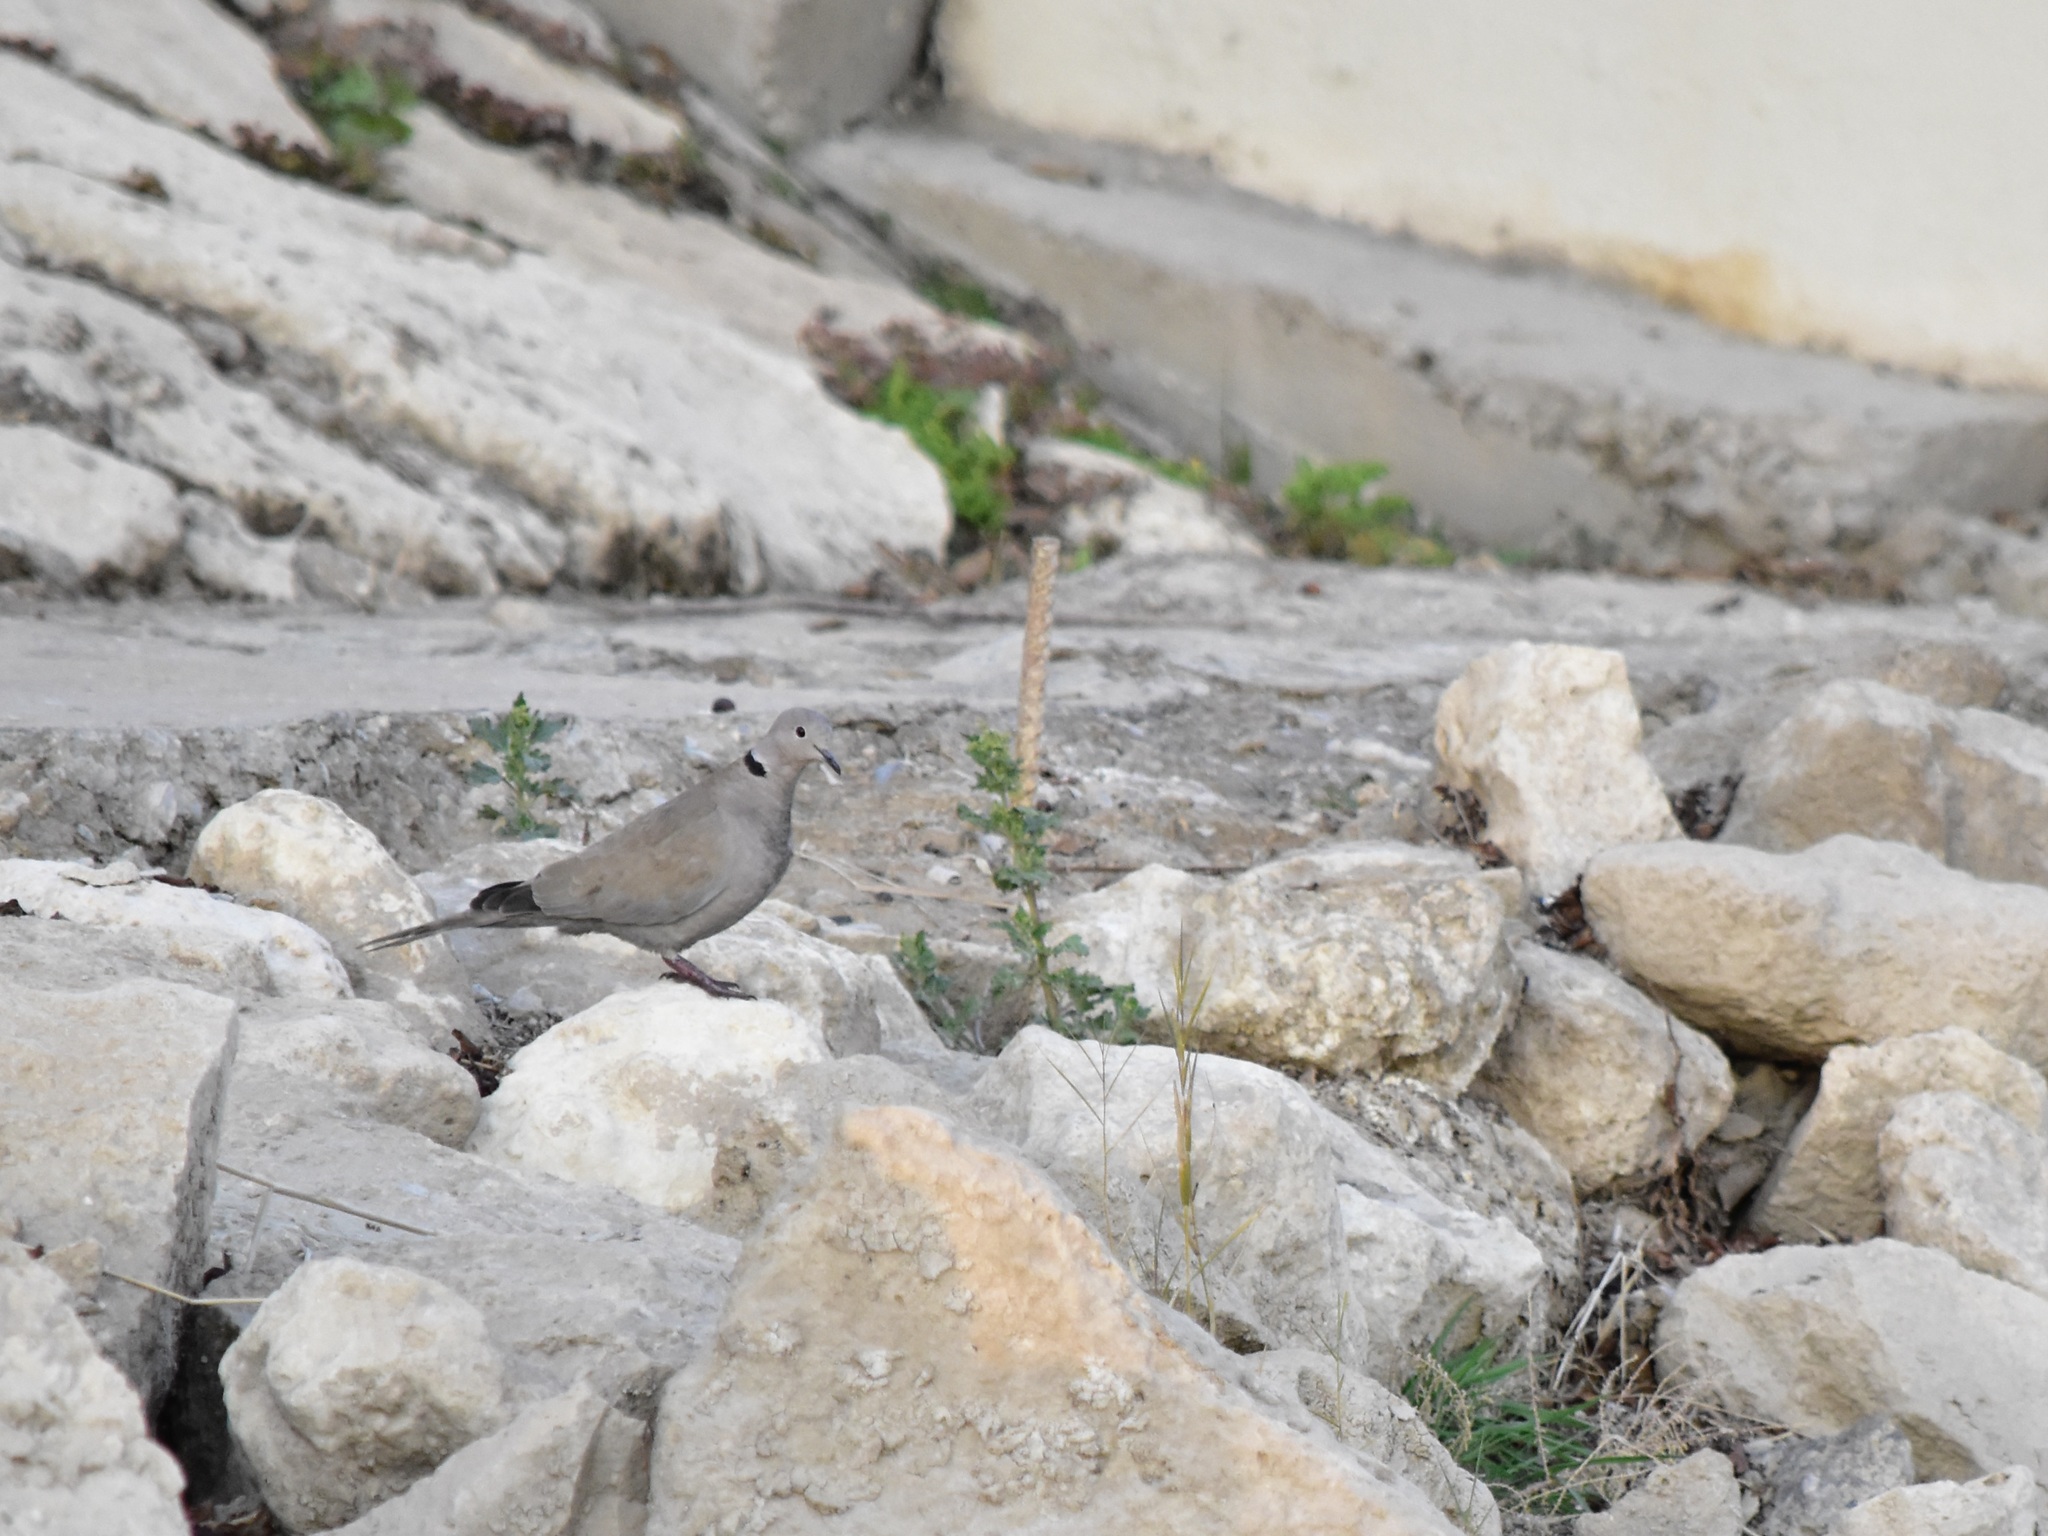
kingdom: Animalia
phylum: Chordata
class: Aves
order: Columbiformes
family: Columbidae
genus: Streptopelia
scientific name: Streptopelia decaocto
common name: Eurasian collared dove
